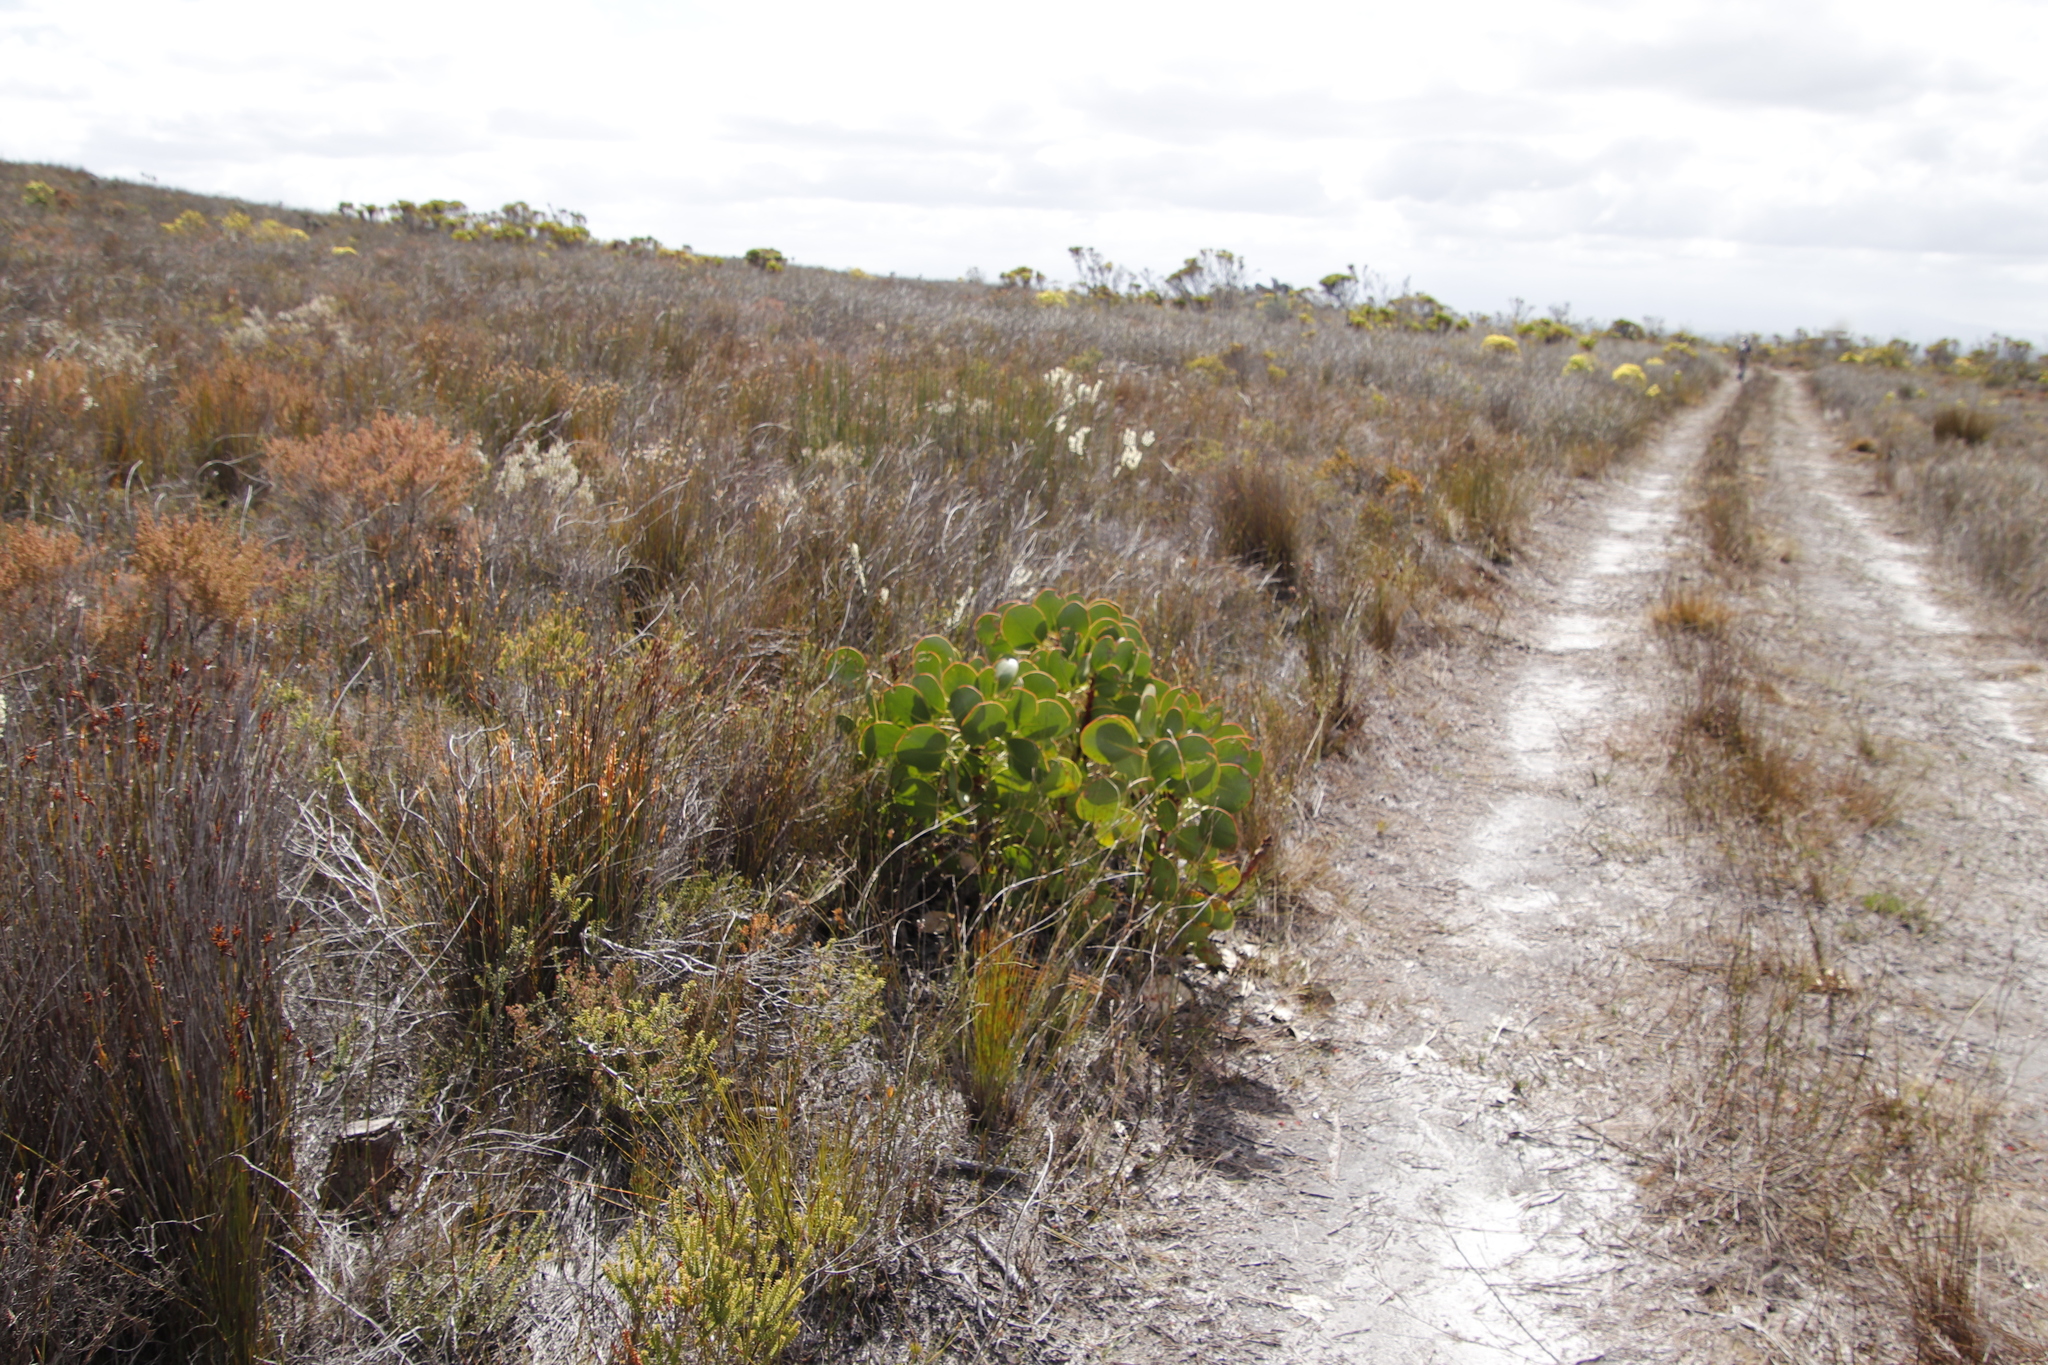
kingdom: Plantae
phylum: Tracheophyta
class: Magnoliopsida
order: Proteales
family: Proteaceae
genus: Protea
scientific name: Protea cynaroides
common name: King protea
